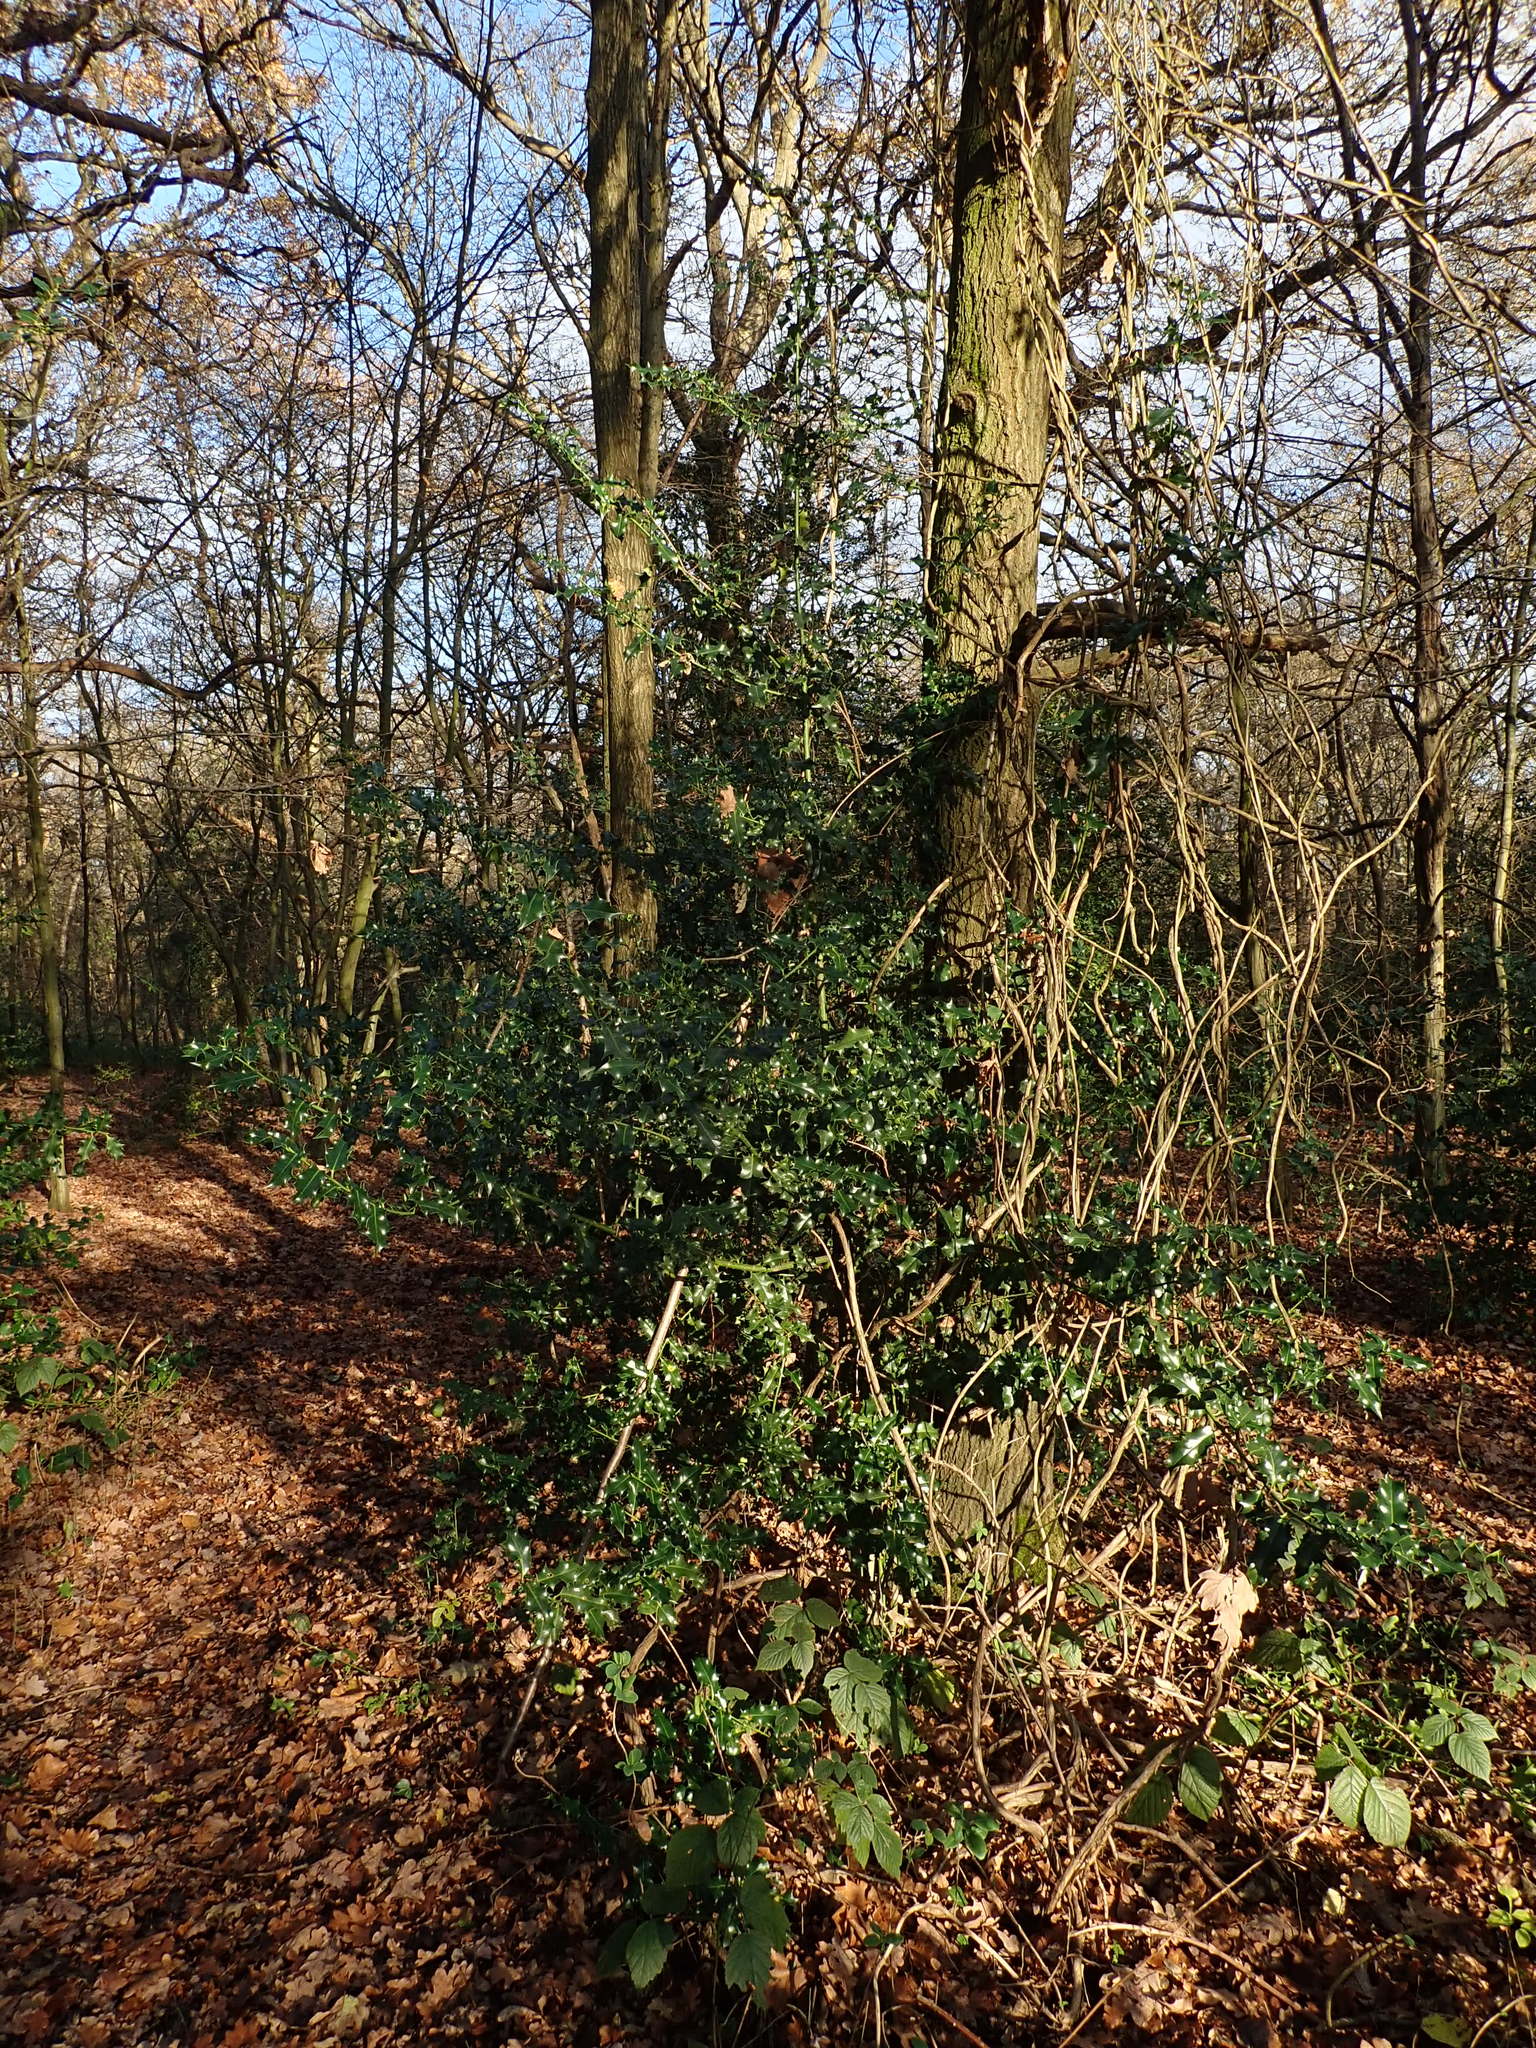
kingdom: Plantae
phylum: Tracheophyta
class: Magnoliopsida
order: Aquifoliales
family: Aquifoliaceae
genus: Ilex
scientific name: Ilex aquifolium
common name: English holly
